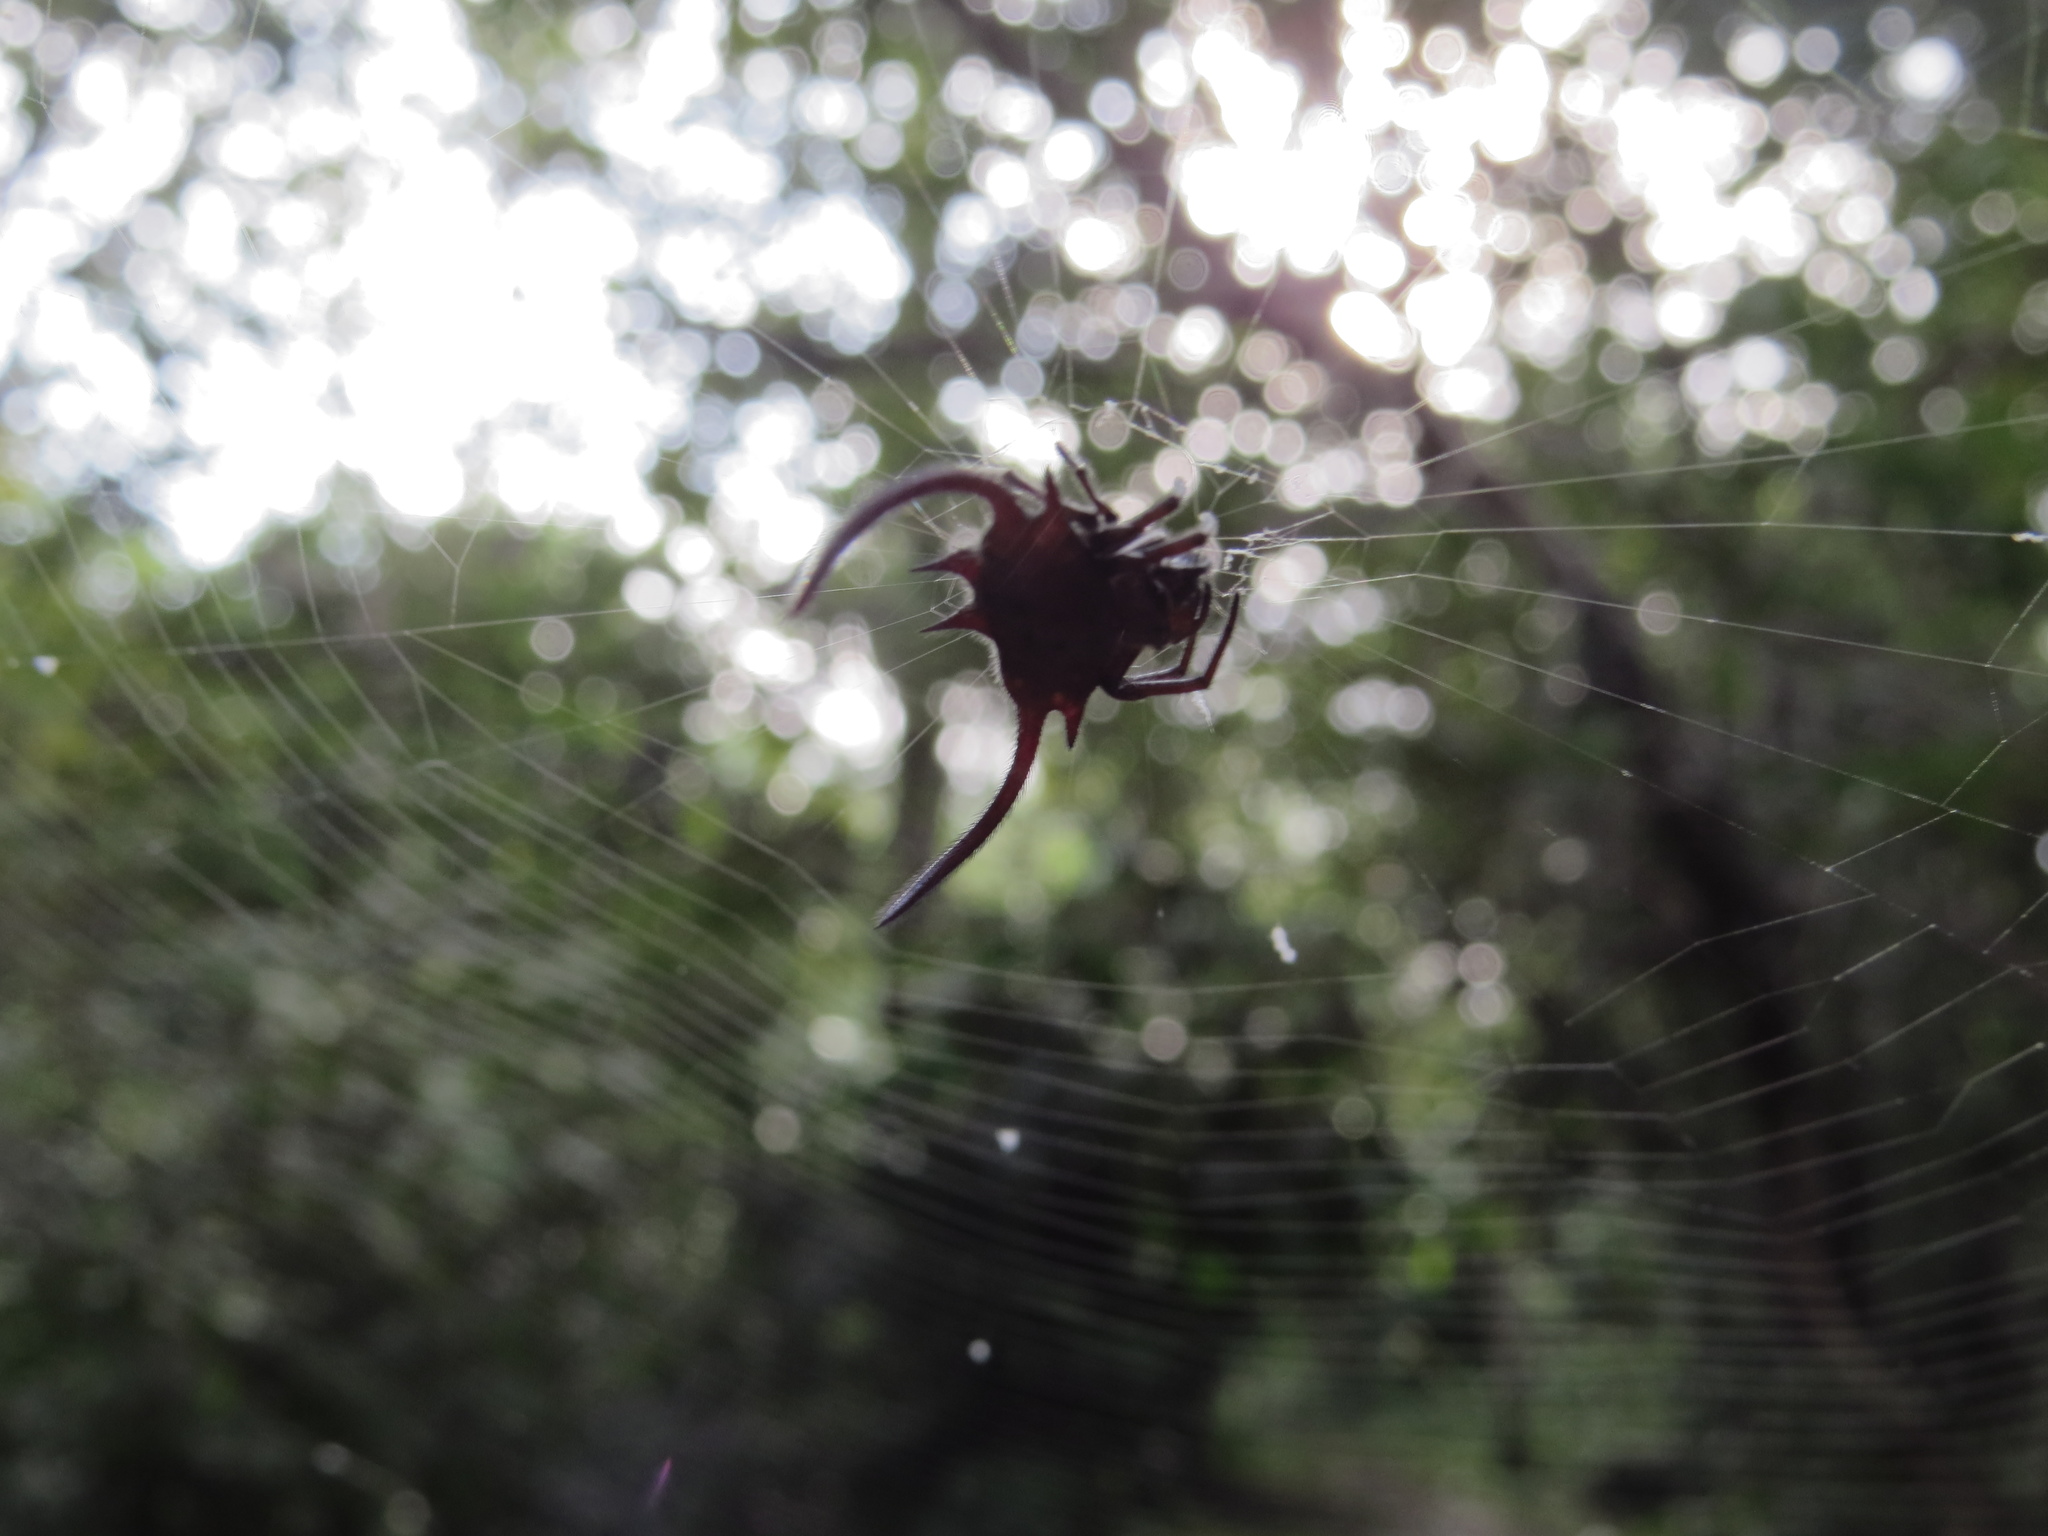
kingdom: Animalia
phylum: Arthropoda
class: Arachnida
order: Araneae
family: Araneidae
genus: Gasteracantha
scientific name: Gasteracantha falcicornis
